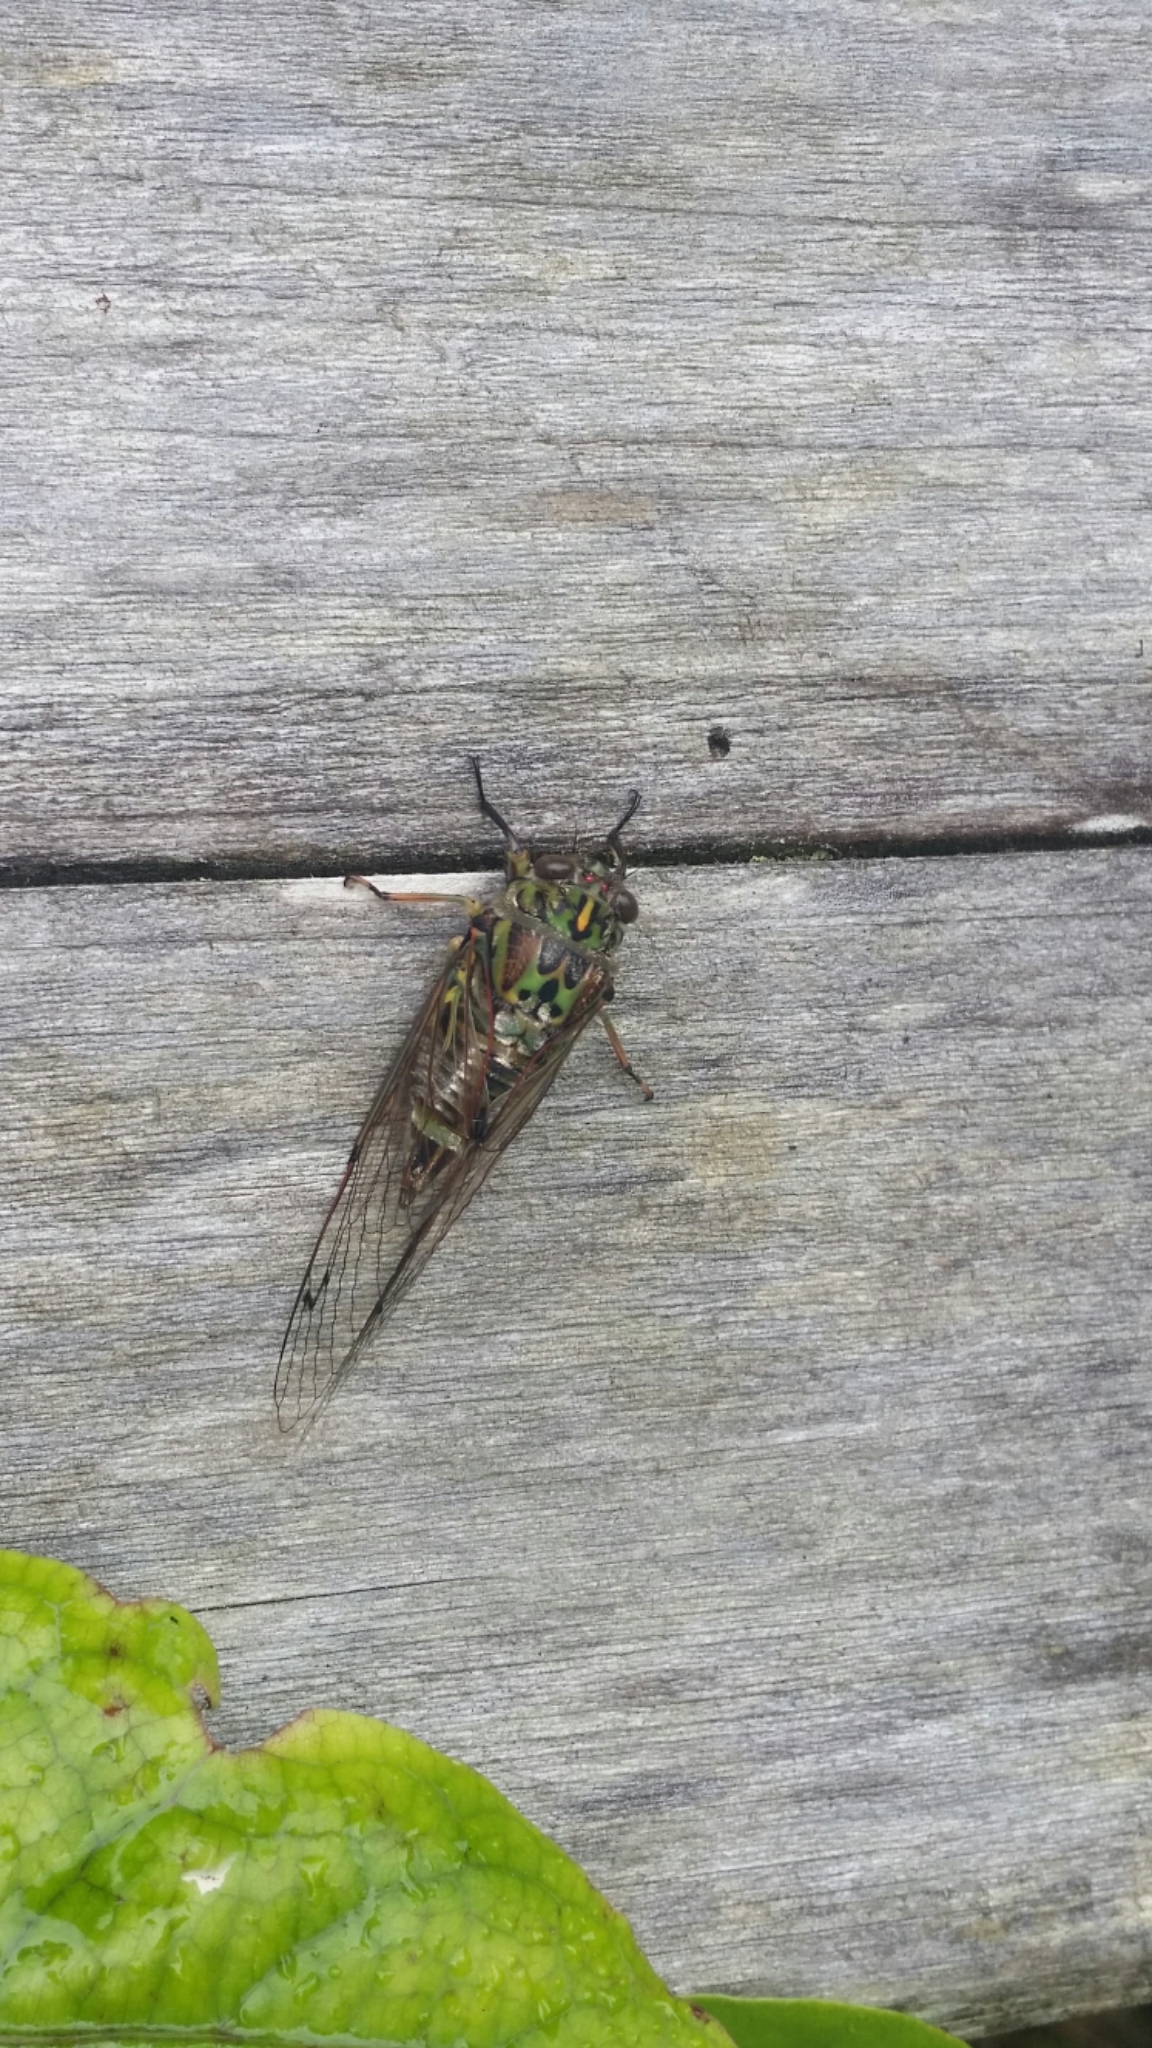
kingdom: Animalia
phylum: Arthropoda
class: Insecta
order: Hemiptera
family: Cicadidae
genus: Amphipsalta
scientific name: Amphipsalta zelandica
